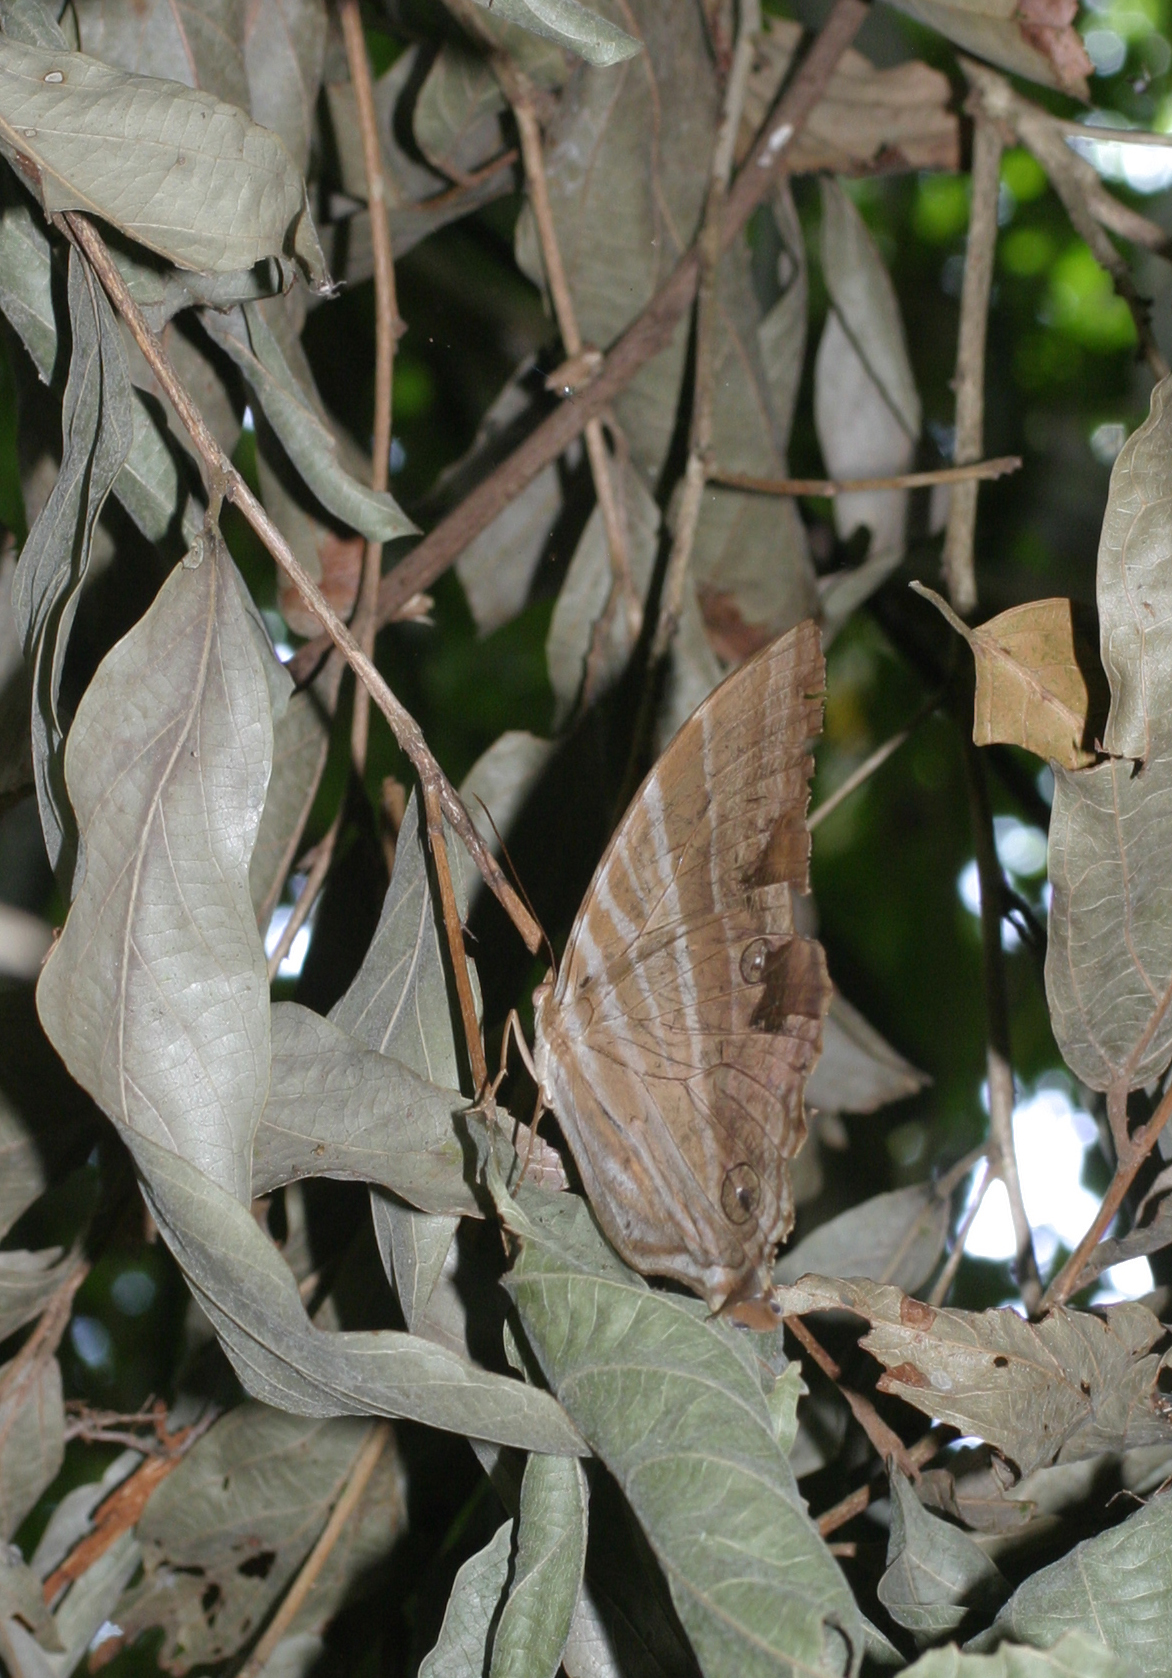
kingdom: Animalia
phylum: Arthropoda
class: Insecta
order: Lepidoptera
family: Nymphalidae
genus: Amathusia
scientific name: Amathusia phidippus
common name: Palm king
